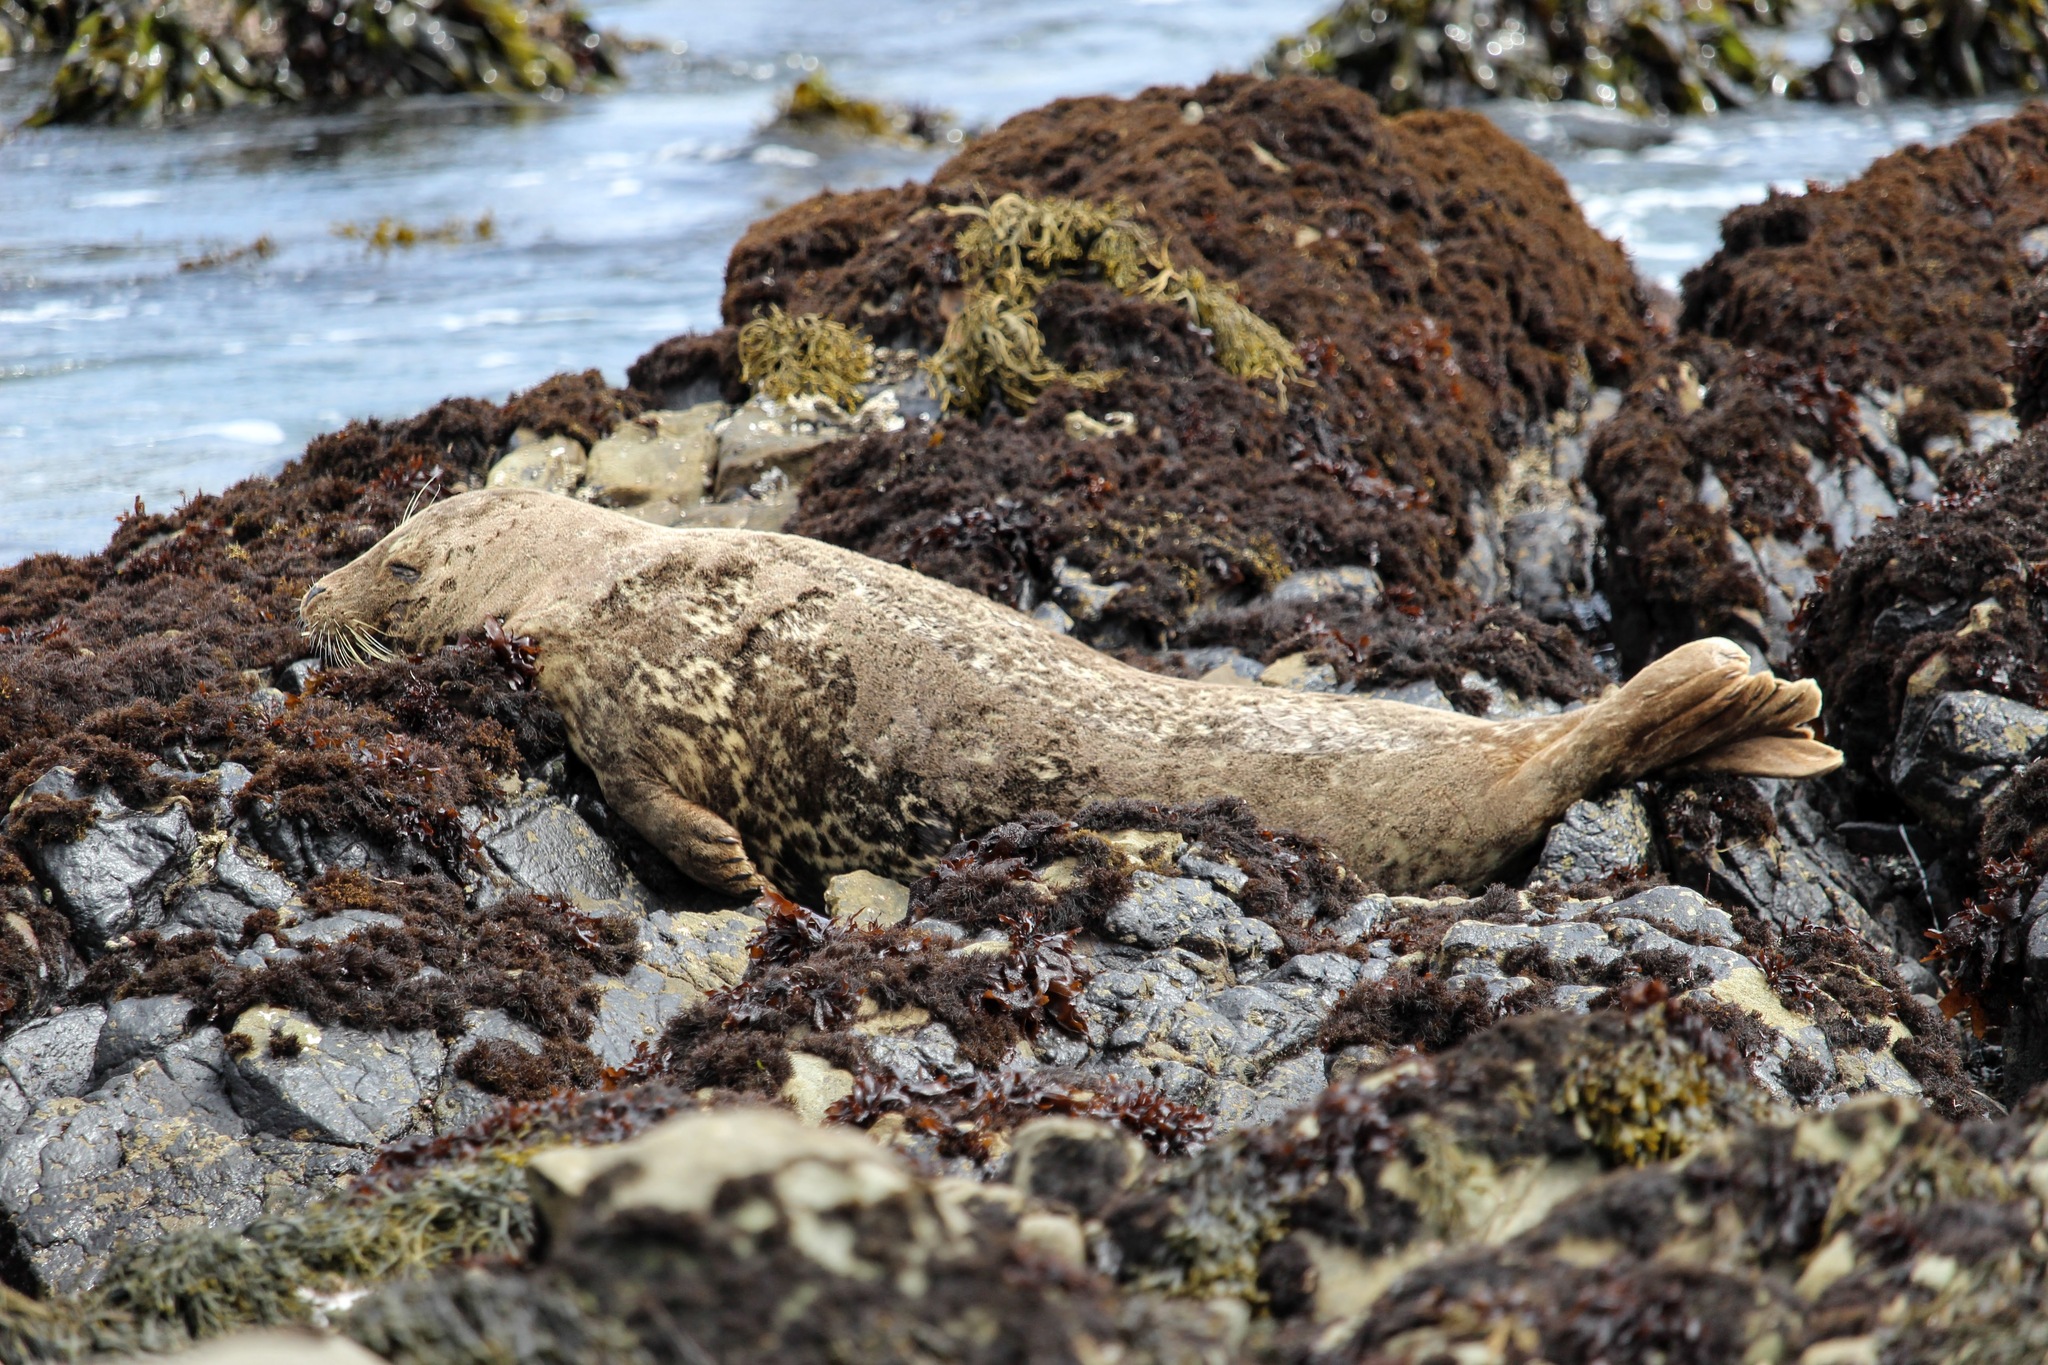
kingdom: Animalia
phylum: Chordata
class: Mammalia
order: Carnivora
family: Phocidae
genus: Phoca
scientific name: Phoca vitulina
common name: Harbor seal
